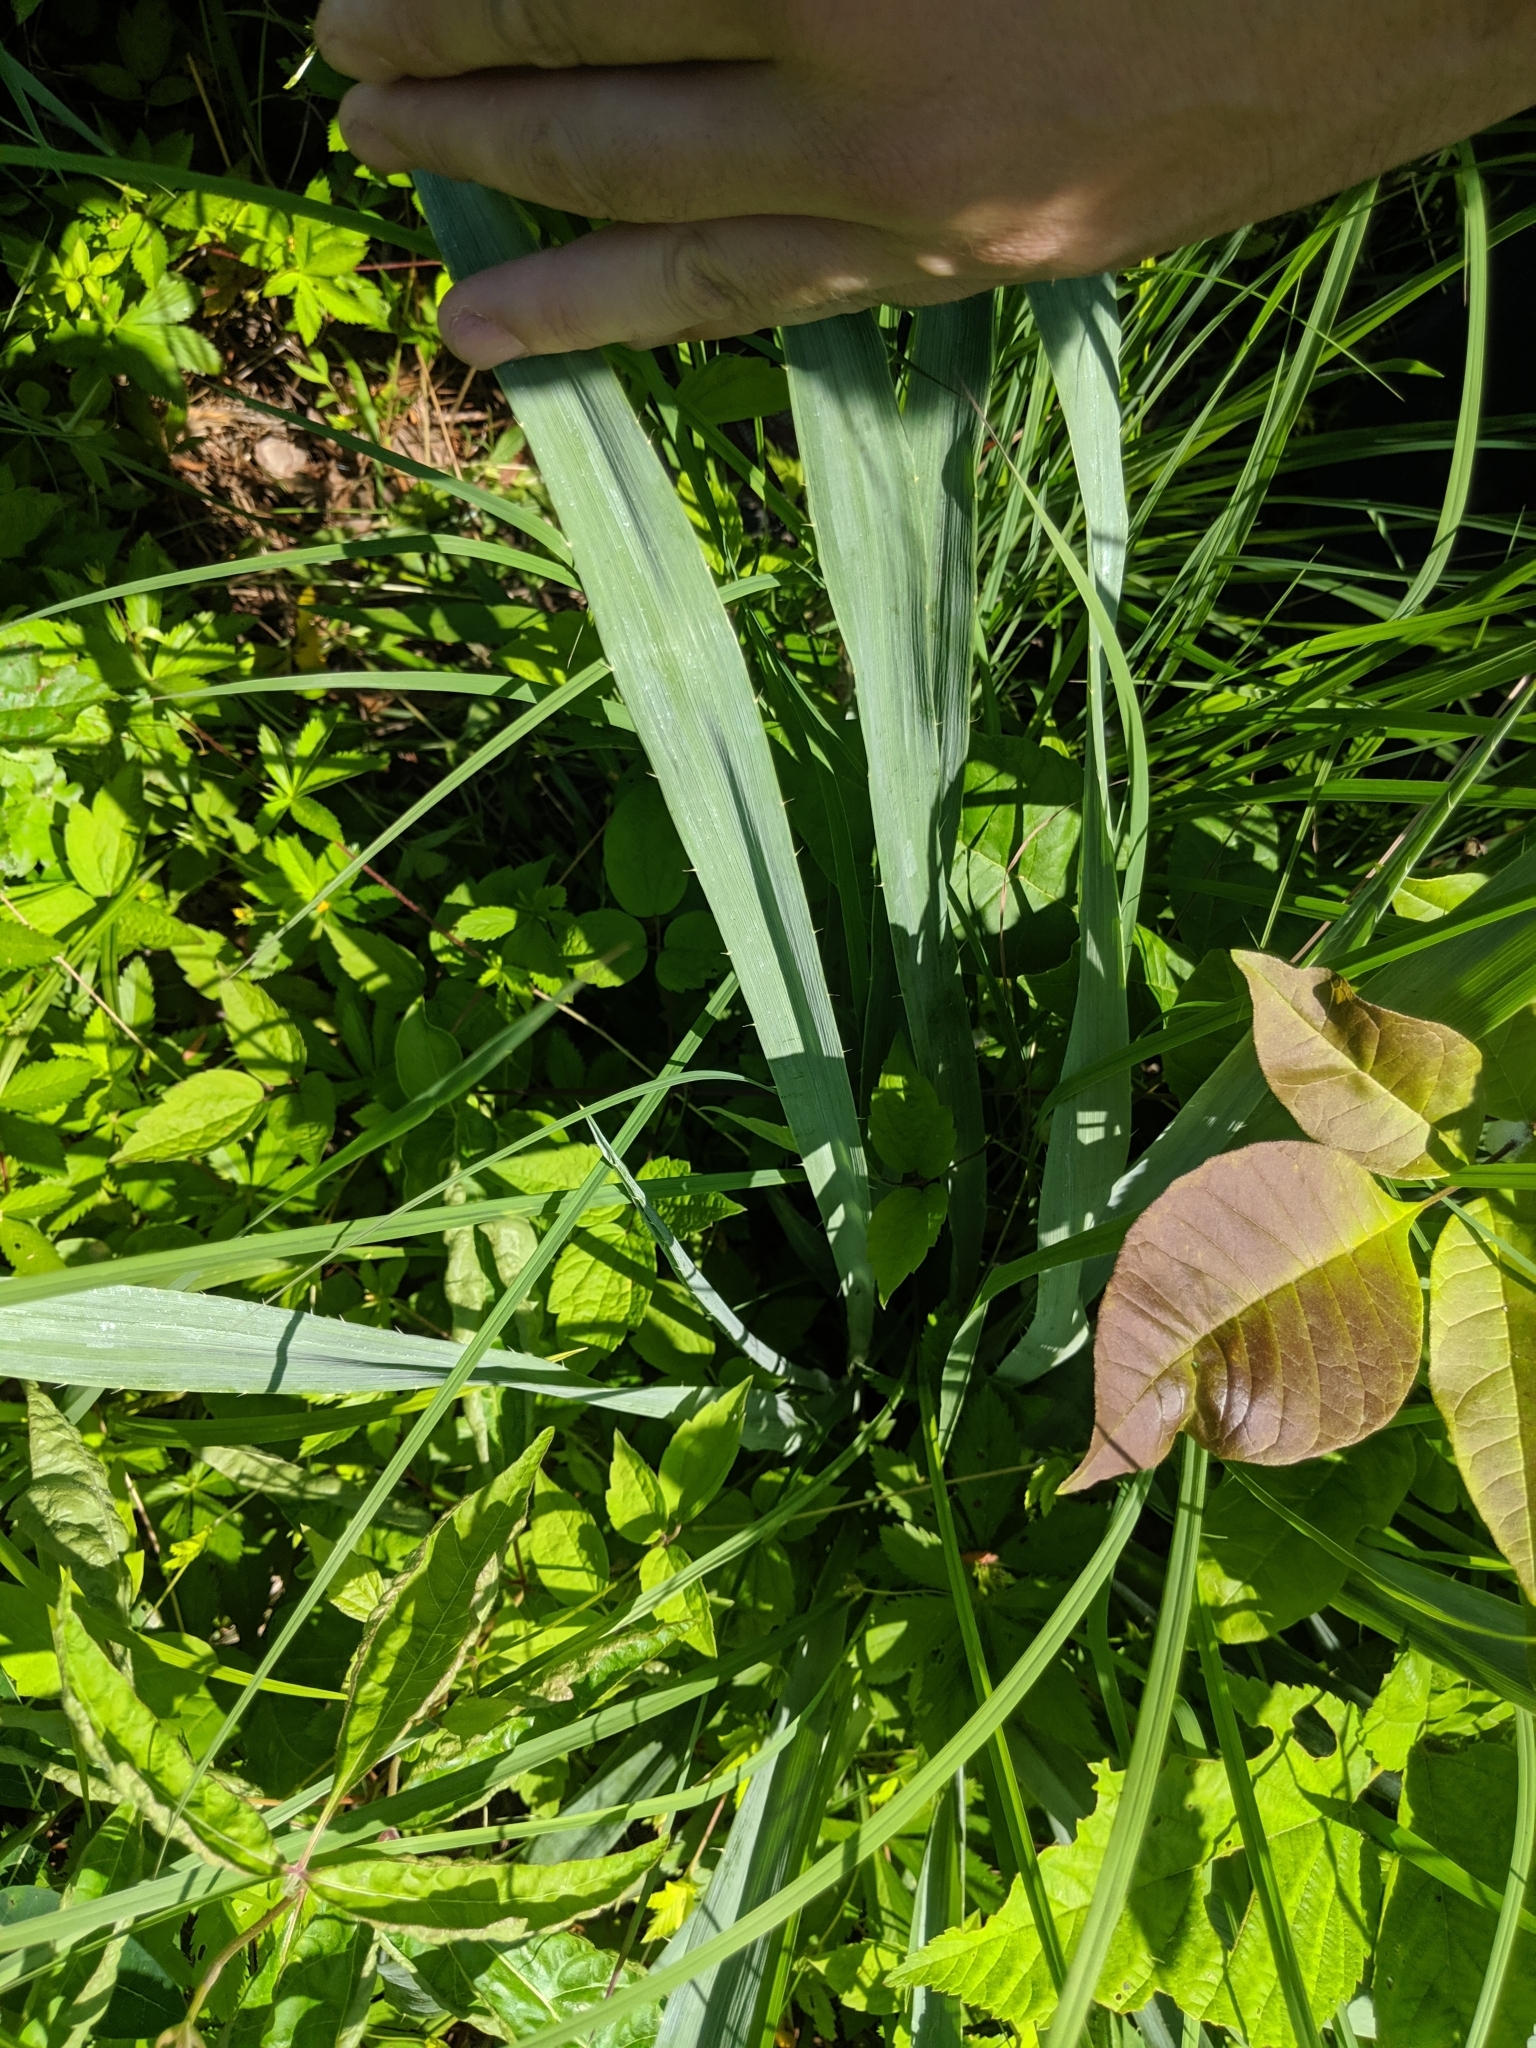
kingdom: Plantae
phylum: Tracheophyta
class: Magnoliopsida
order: Apiales
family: Apiaceae
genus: Eryngium
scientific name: Eryngium yuccifolium
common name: Button eryngo
